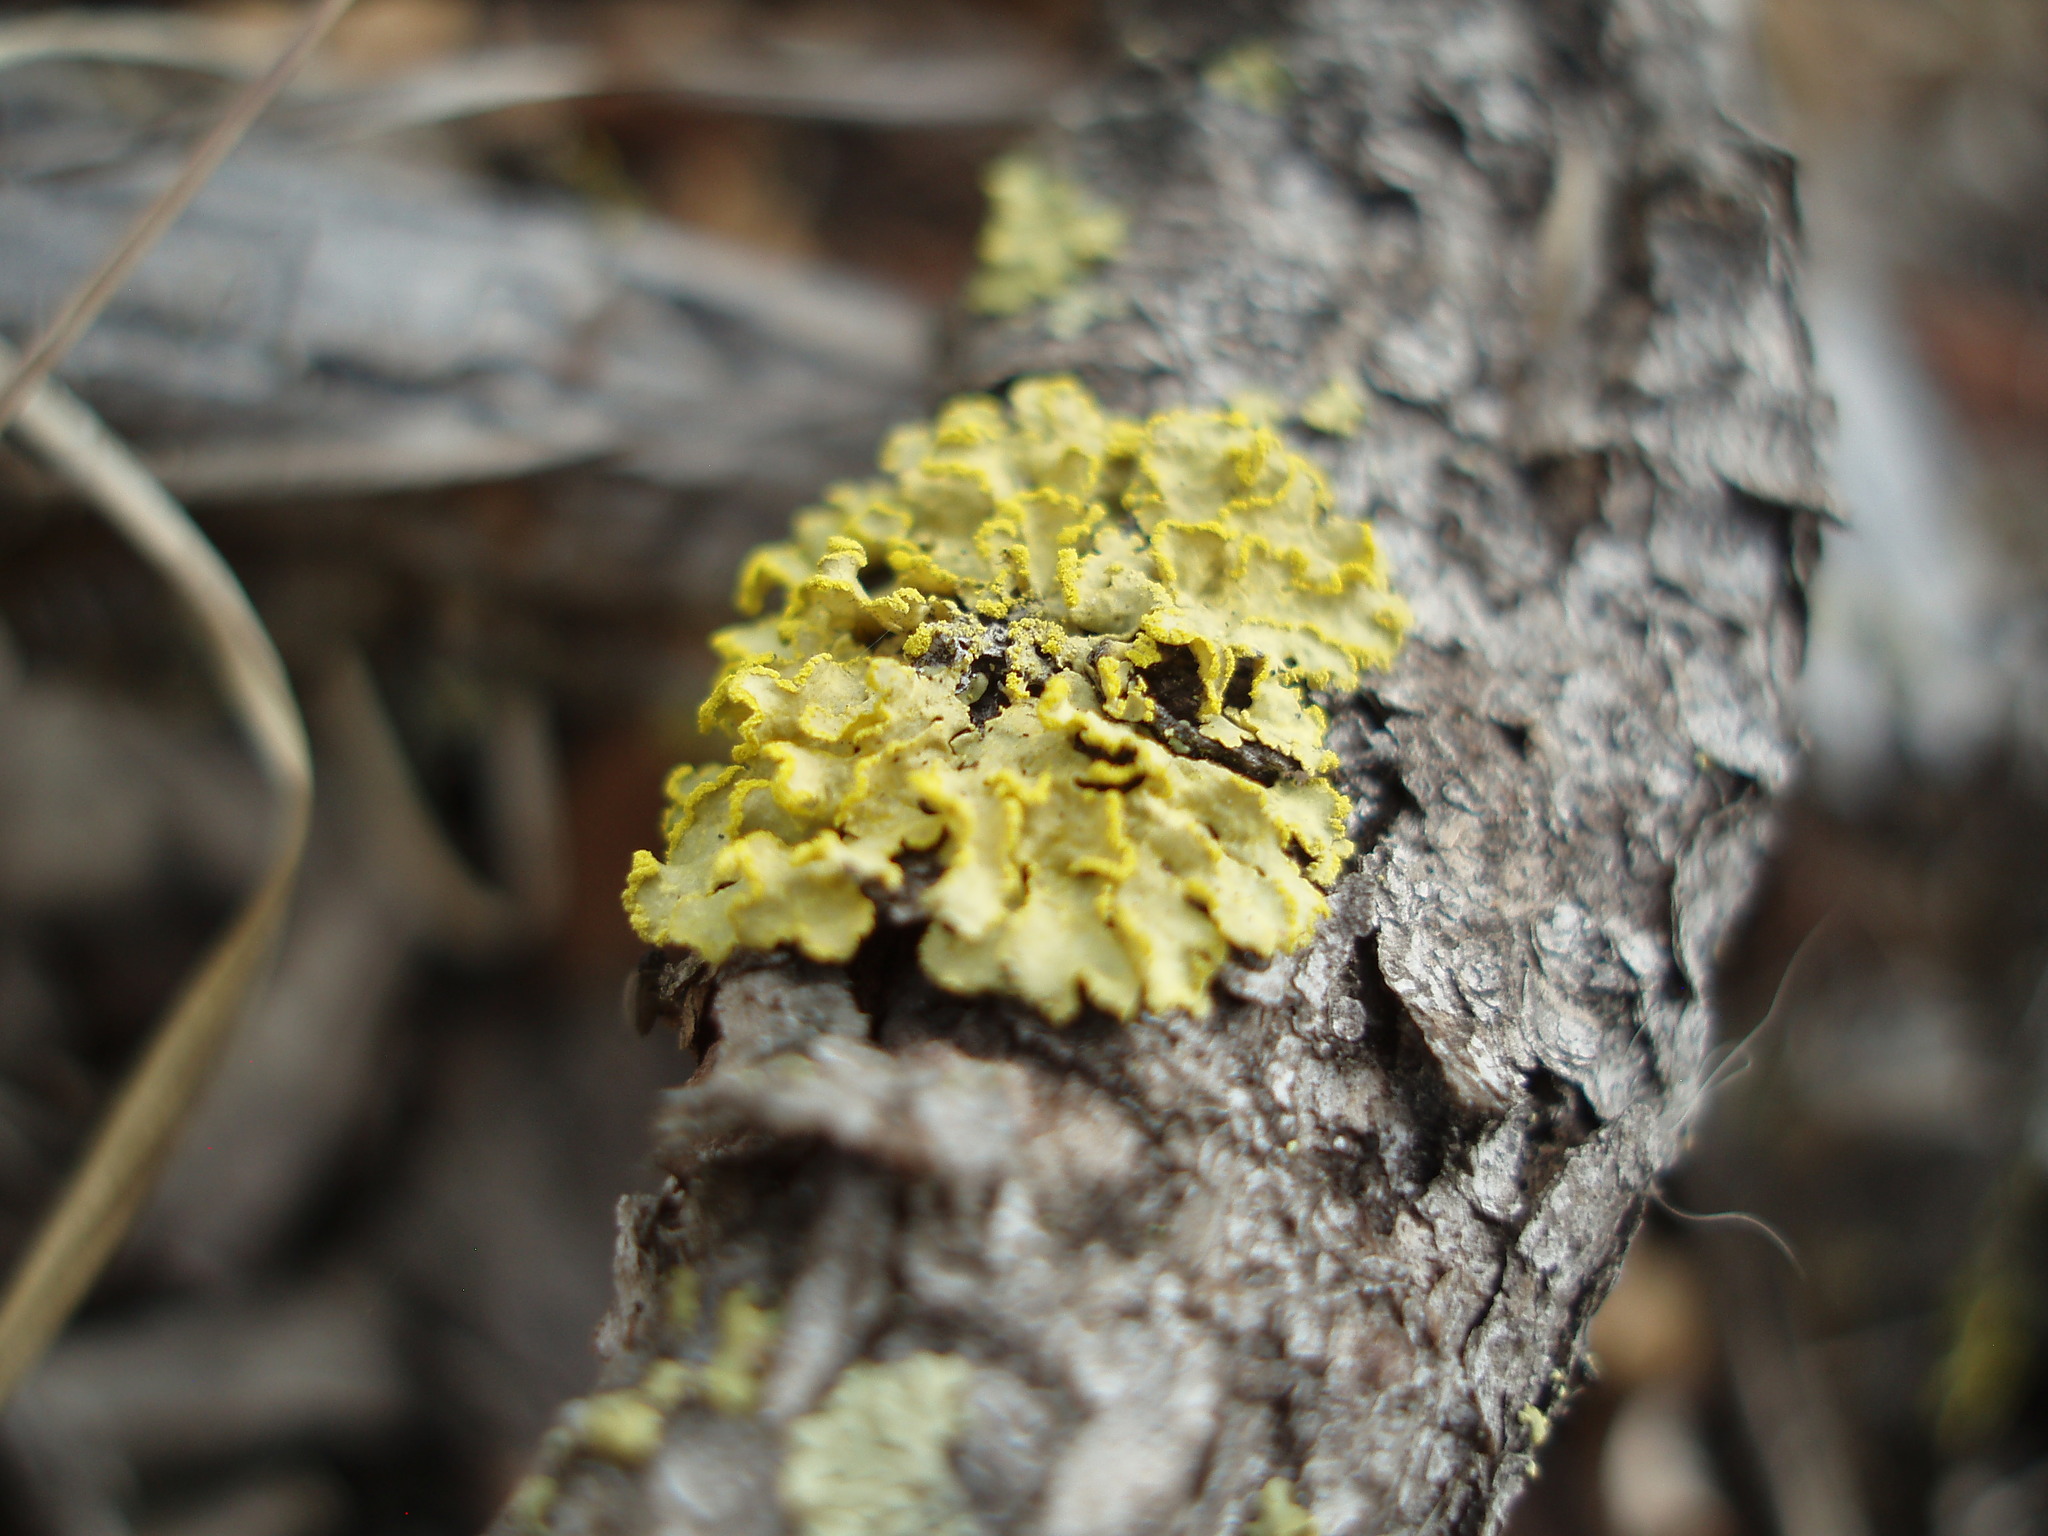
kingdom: Fungi
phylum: Ascomycota
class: Lecanoromycetes
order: Lecanorales
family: Parmeliaceae
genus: Vulpicida
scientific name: Vulpicida pinastri
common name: Powdered sunshine lichen
